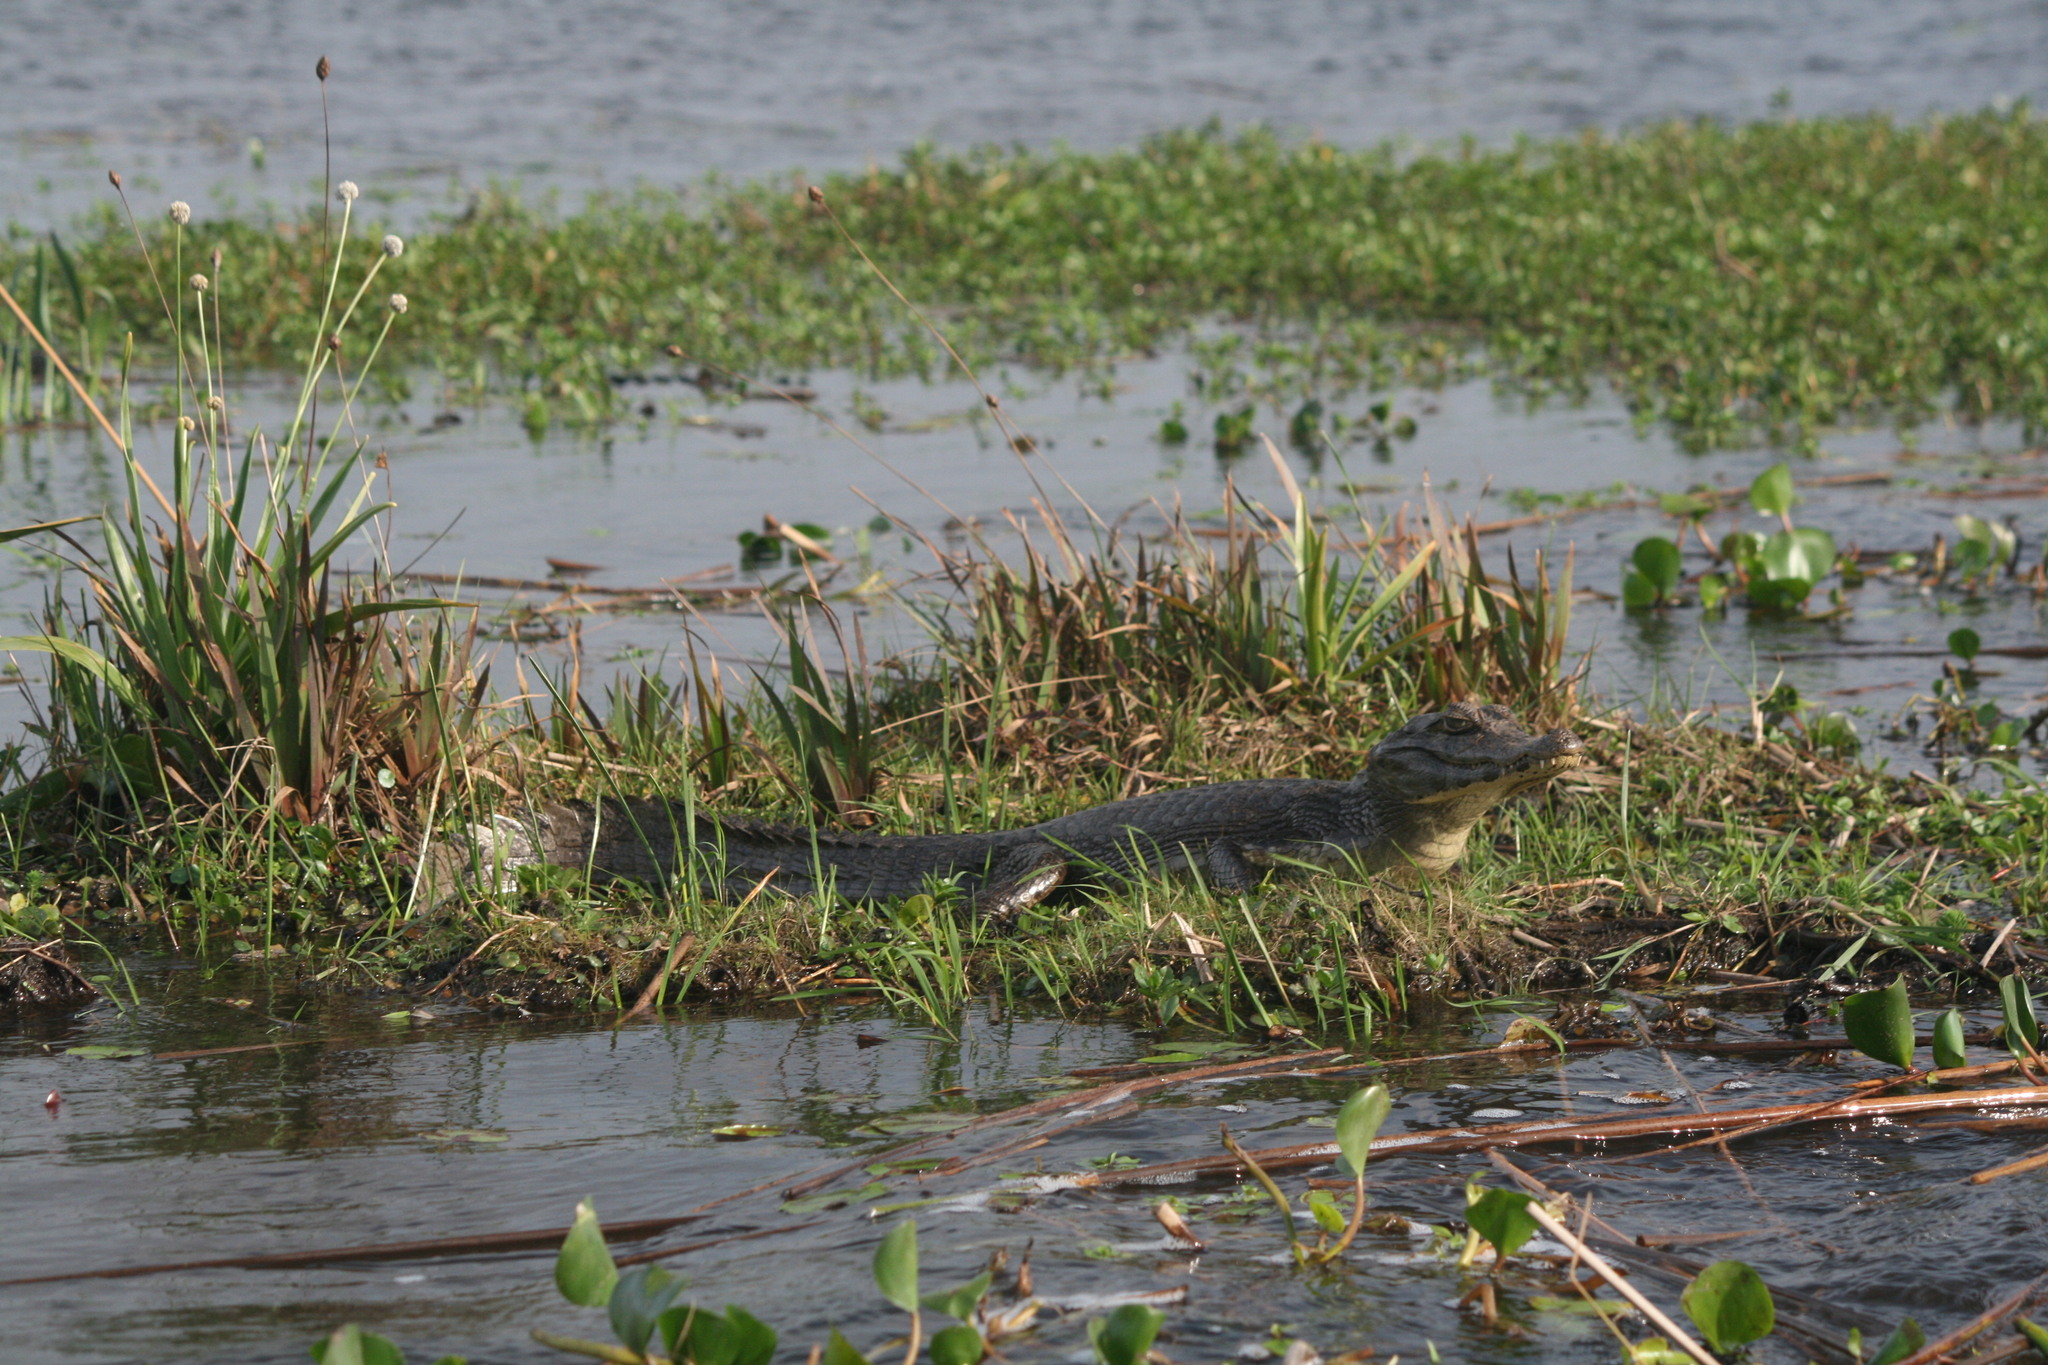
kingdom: Animalia
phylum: Chordata
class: Crocodylia
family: Alligatoridae
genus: Caiman
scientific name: Caiman yacare
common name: Yacare caiman
